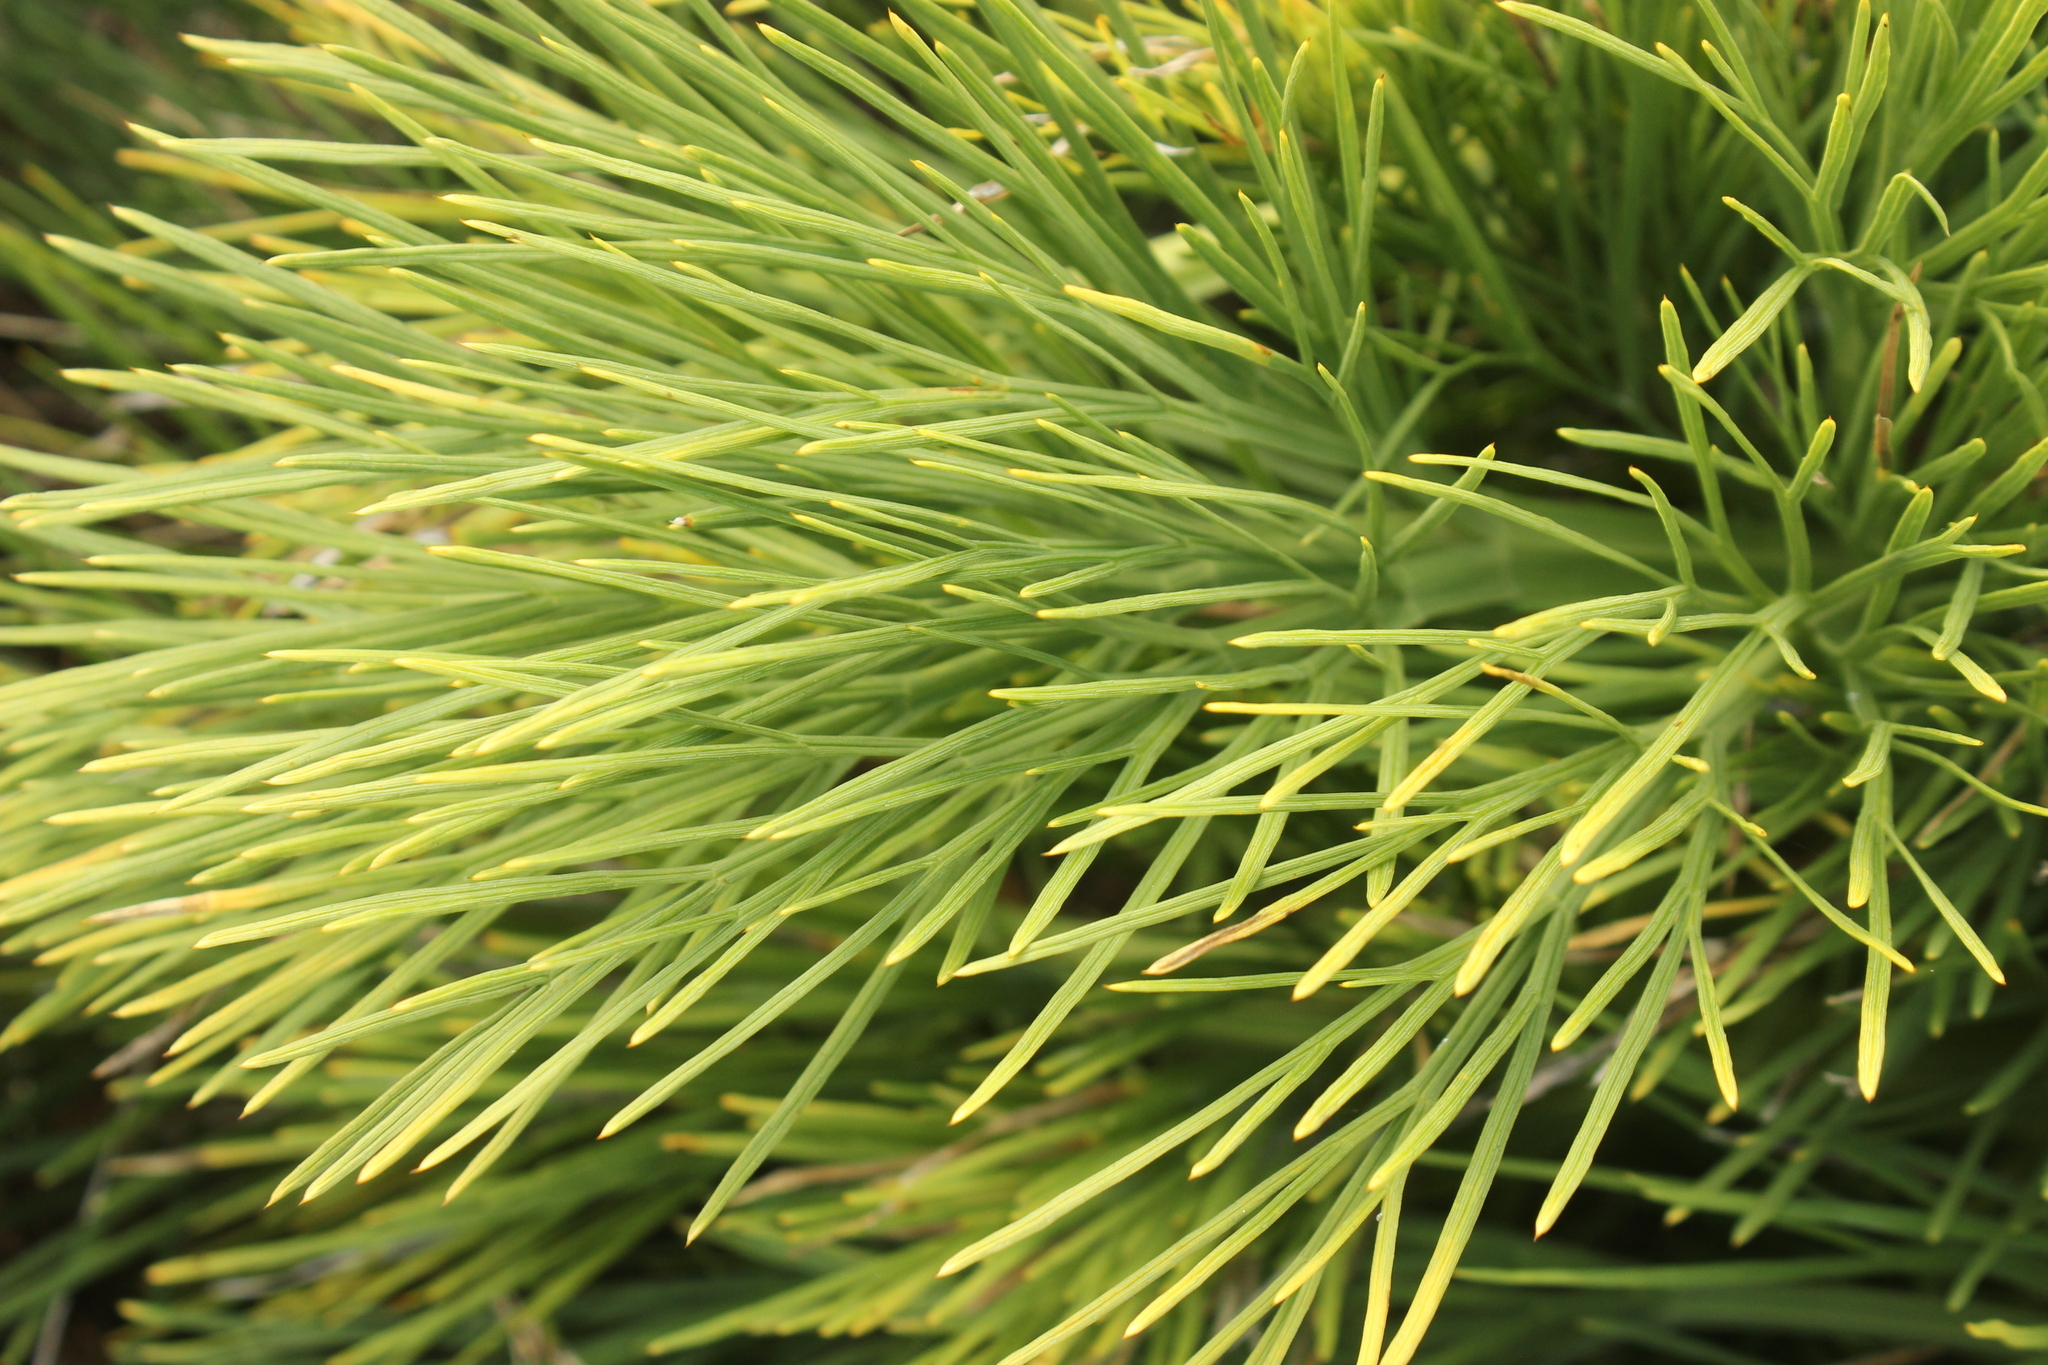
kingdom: Plantae
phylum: Tracheophyta
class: Magnoliopsida
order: Apiales
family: Apiaceae
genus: Aciphylla
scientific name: Aciphylla dieffenbachii
